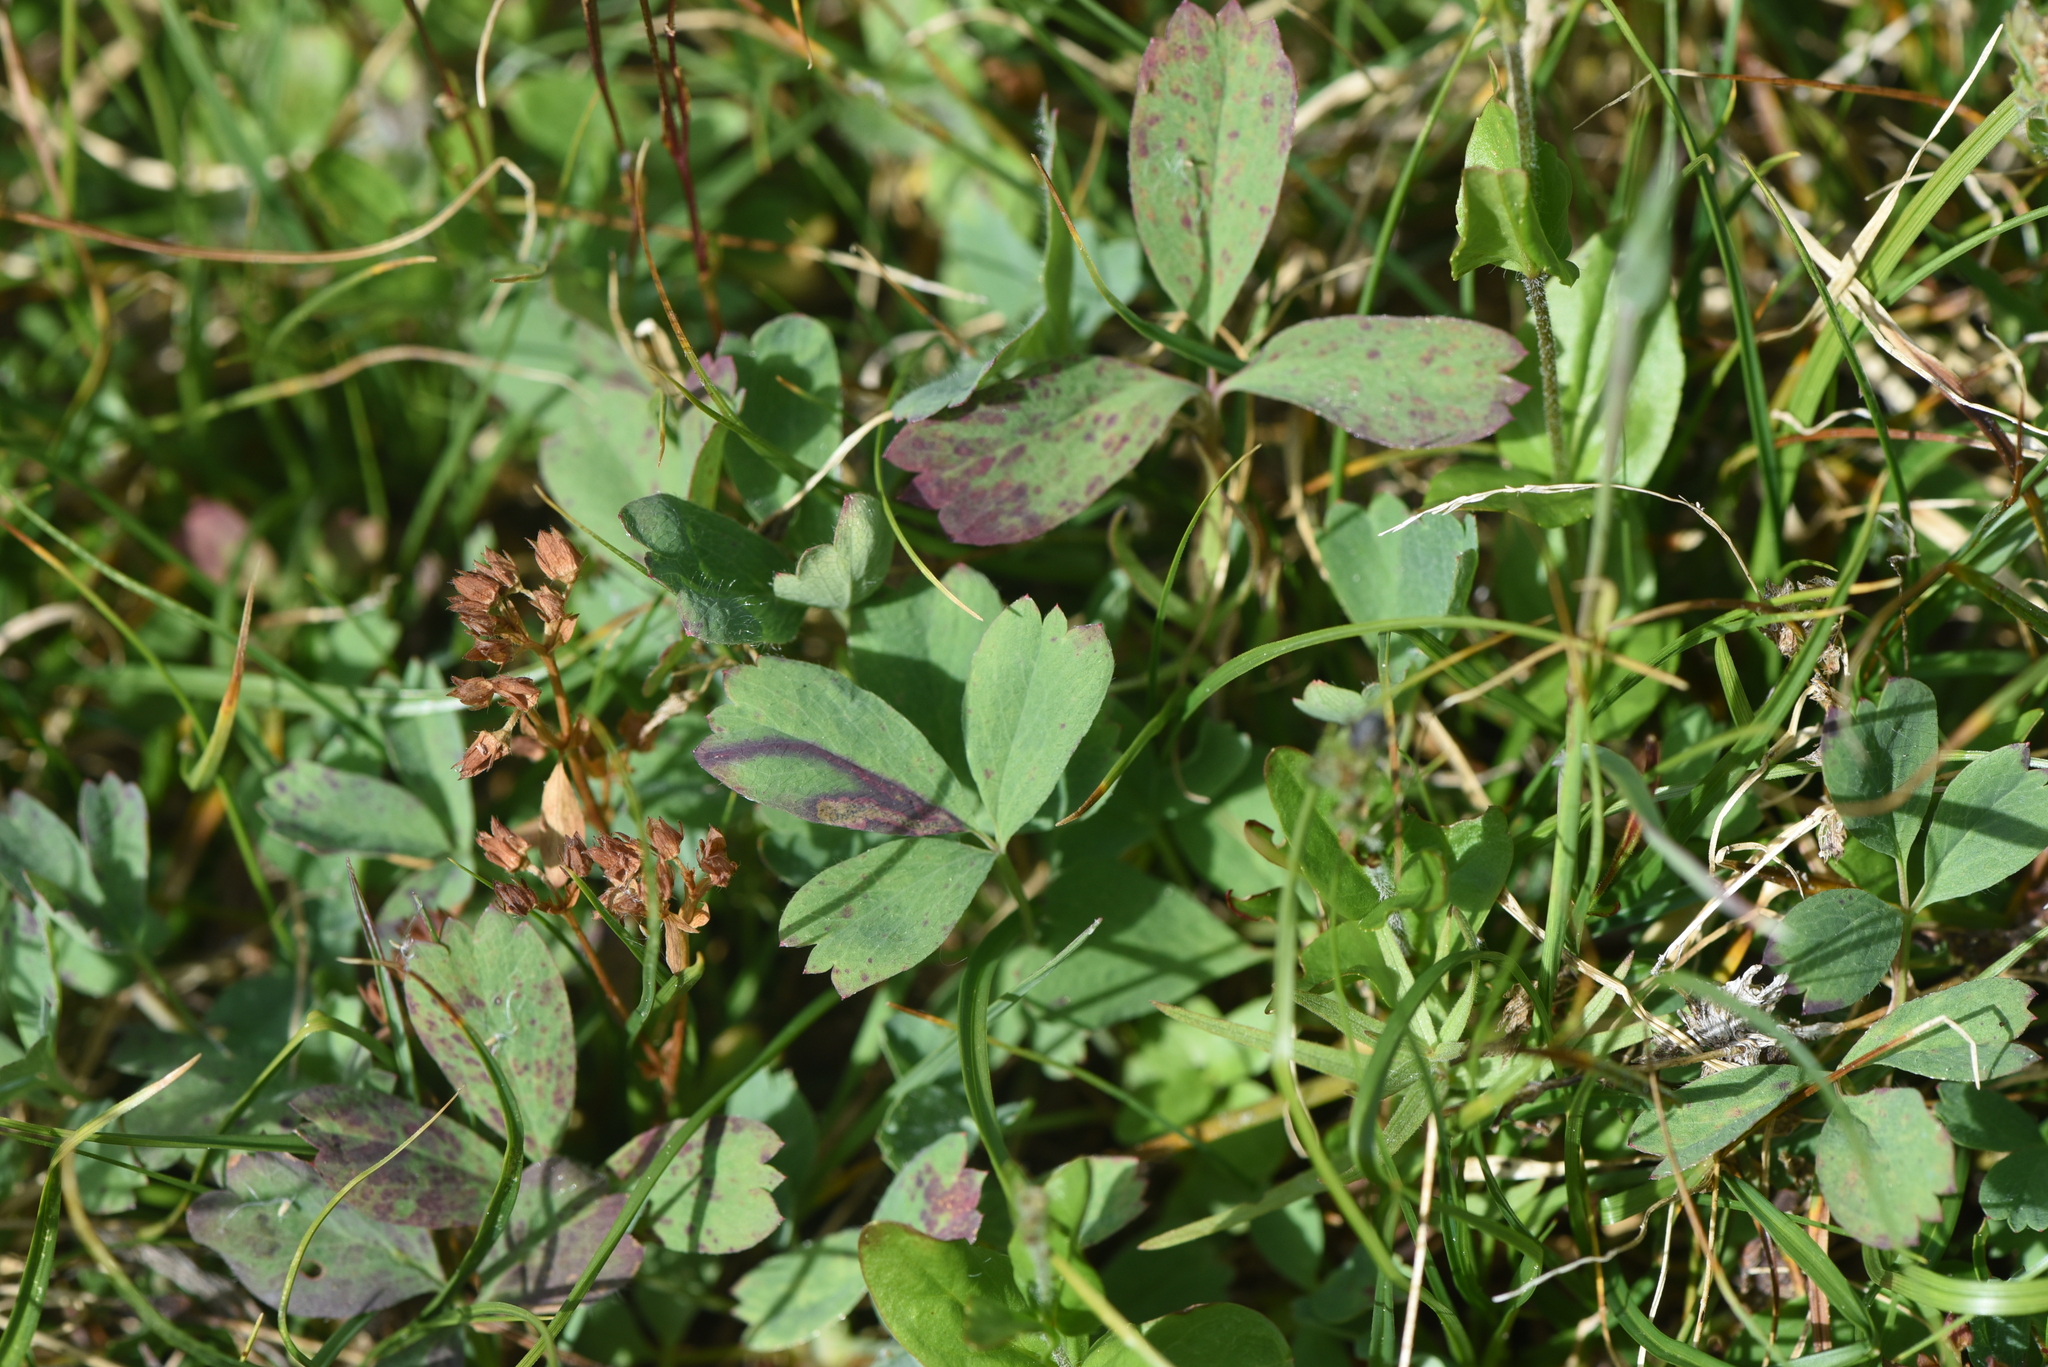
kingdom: Plantae
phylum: Tracheophyta
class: Magnoliopsida
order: Rosales
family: Rosaceae
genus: Sibbaldia
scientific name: Sibbaldia procumbens
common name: Creeping sibbaldia
